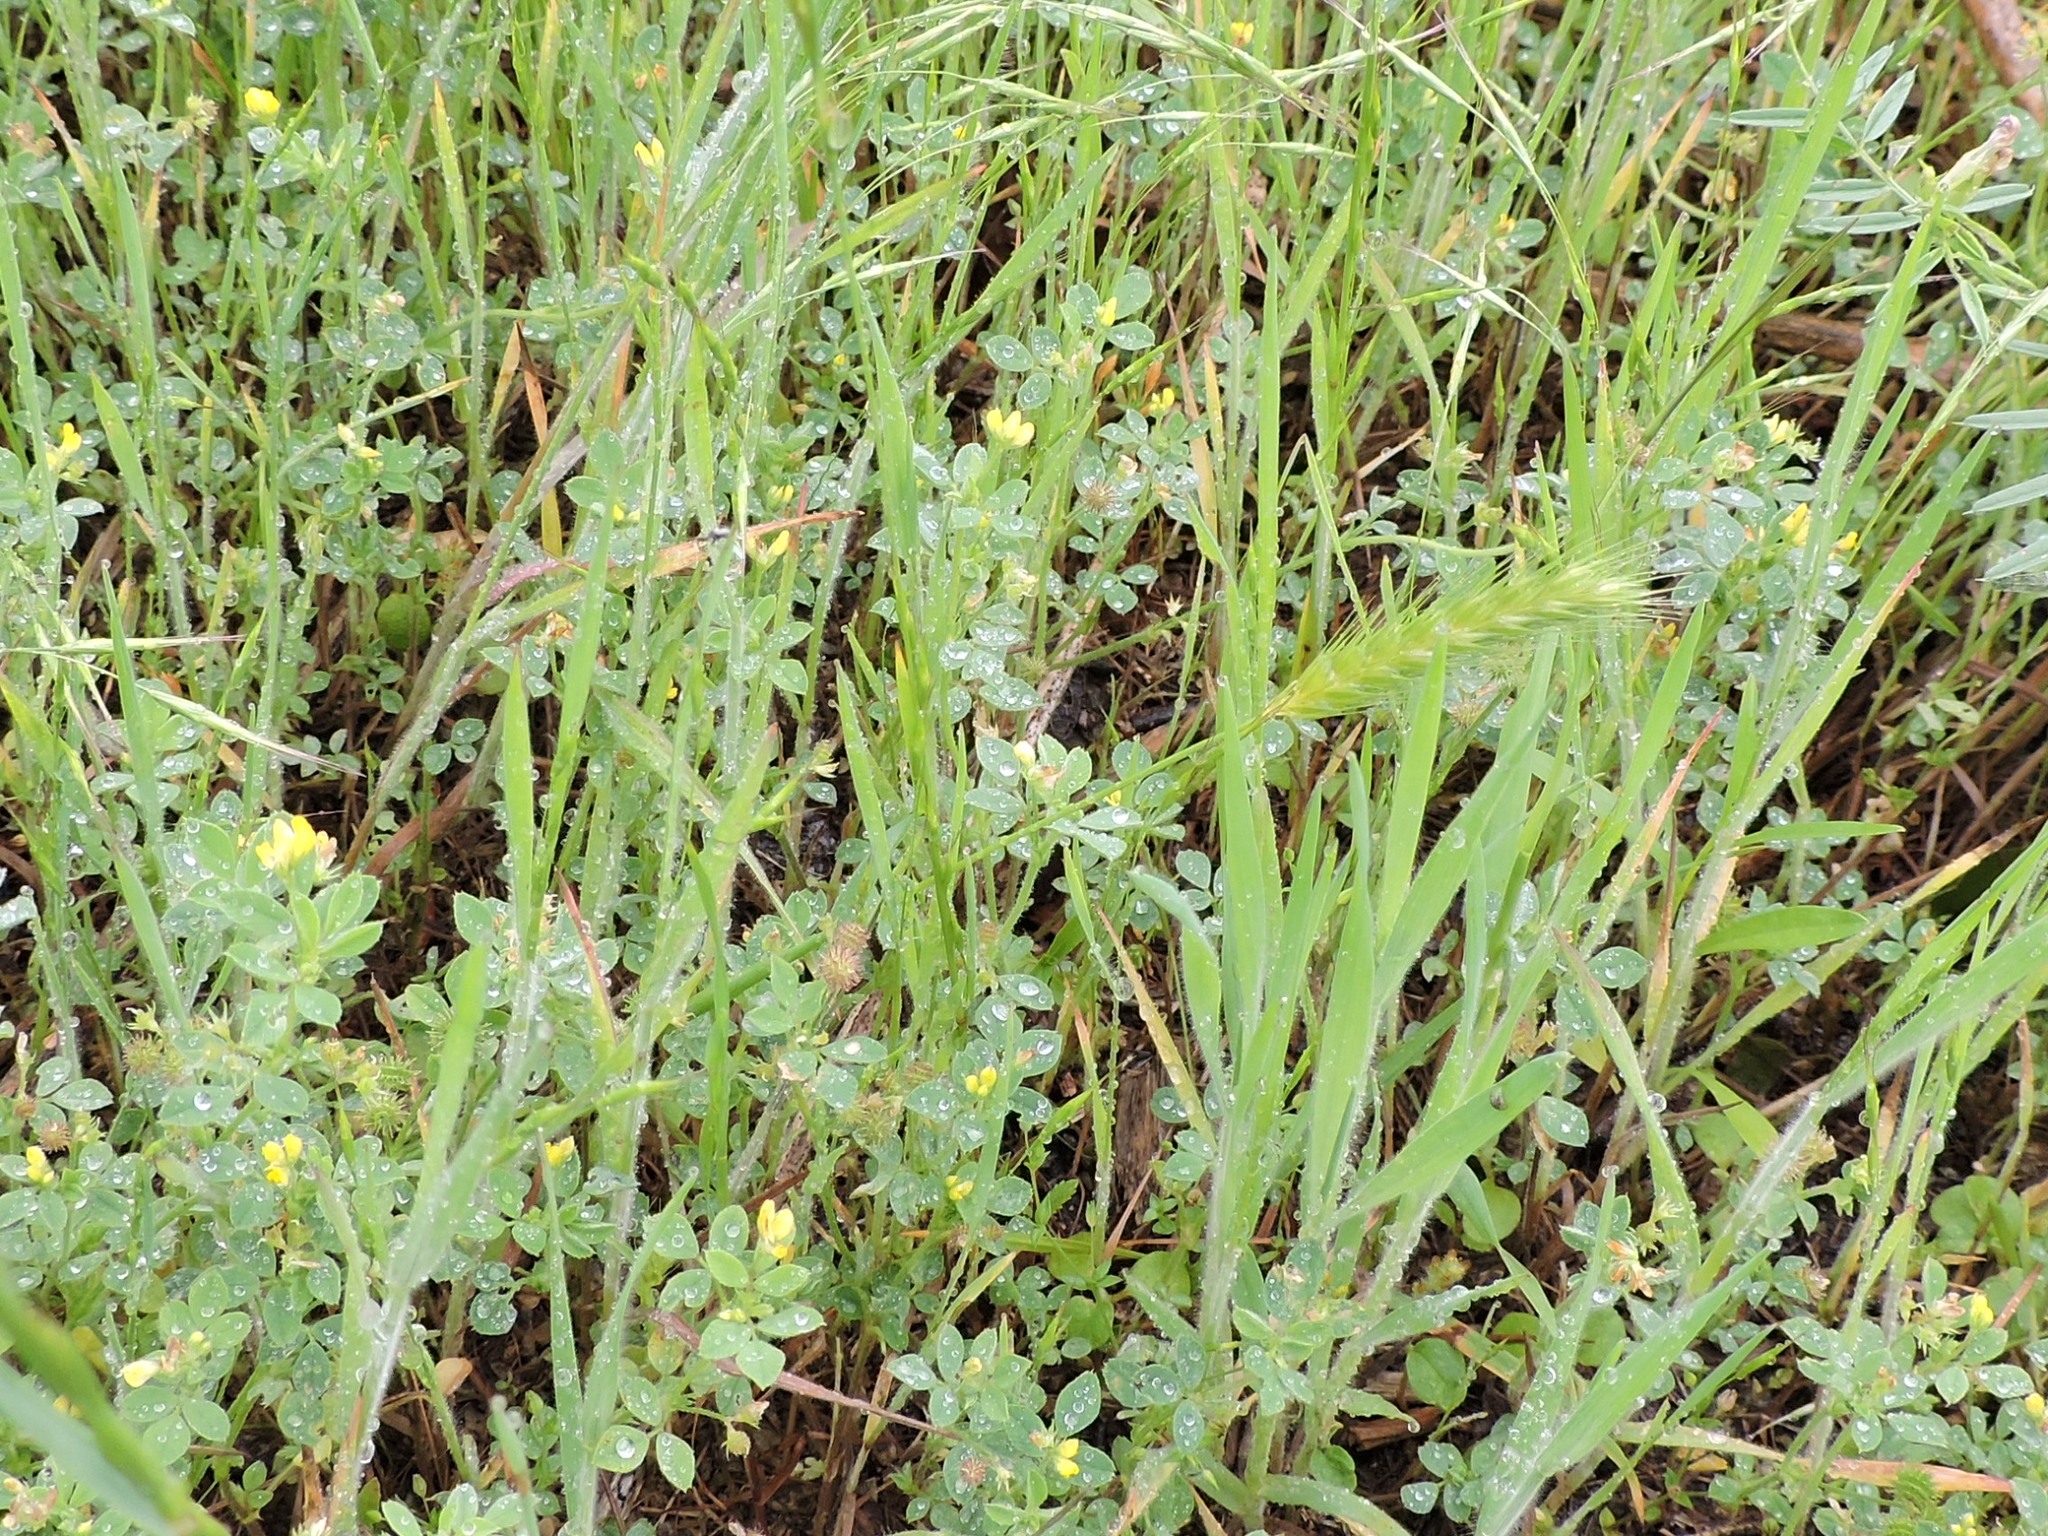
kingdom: Plantae
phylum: Tracheophyta
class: Liliopsida
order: Poales
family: Poaceae
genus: Hordeum
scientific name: Hordeum pusillum
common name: Little barley
